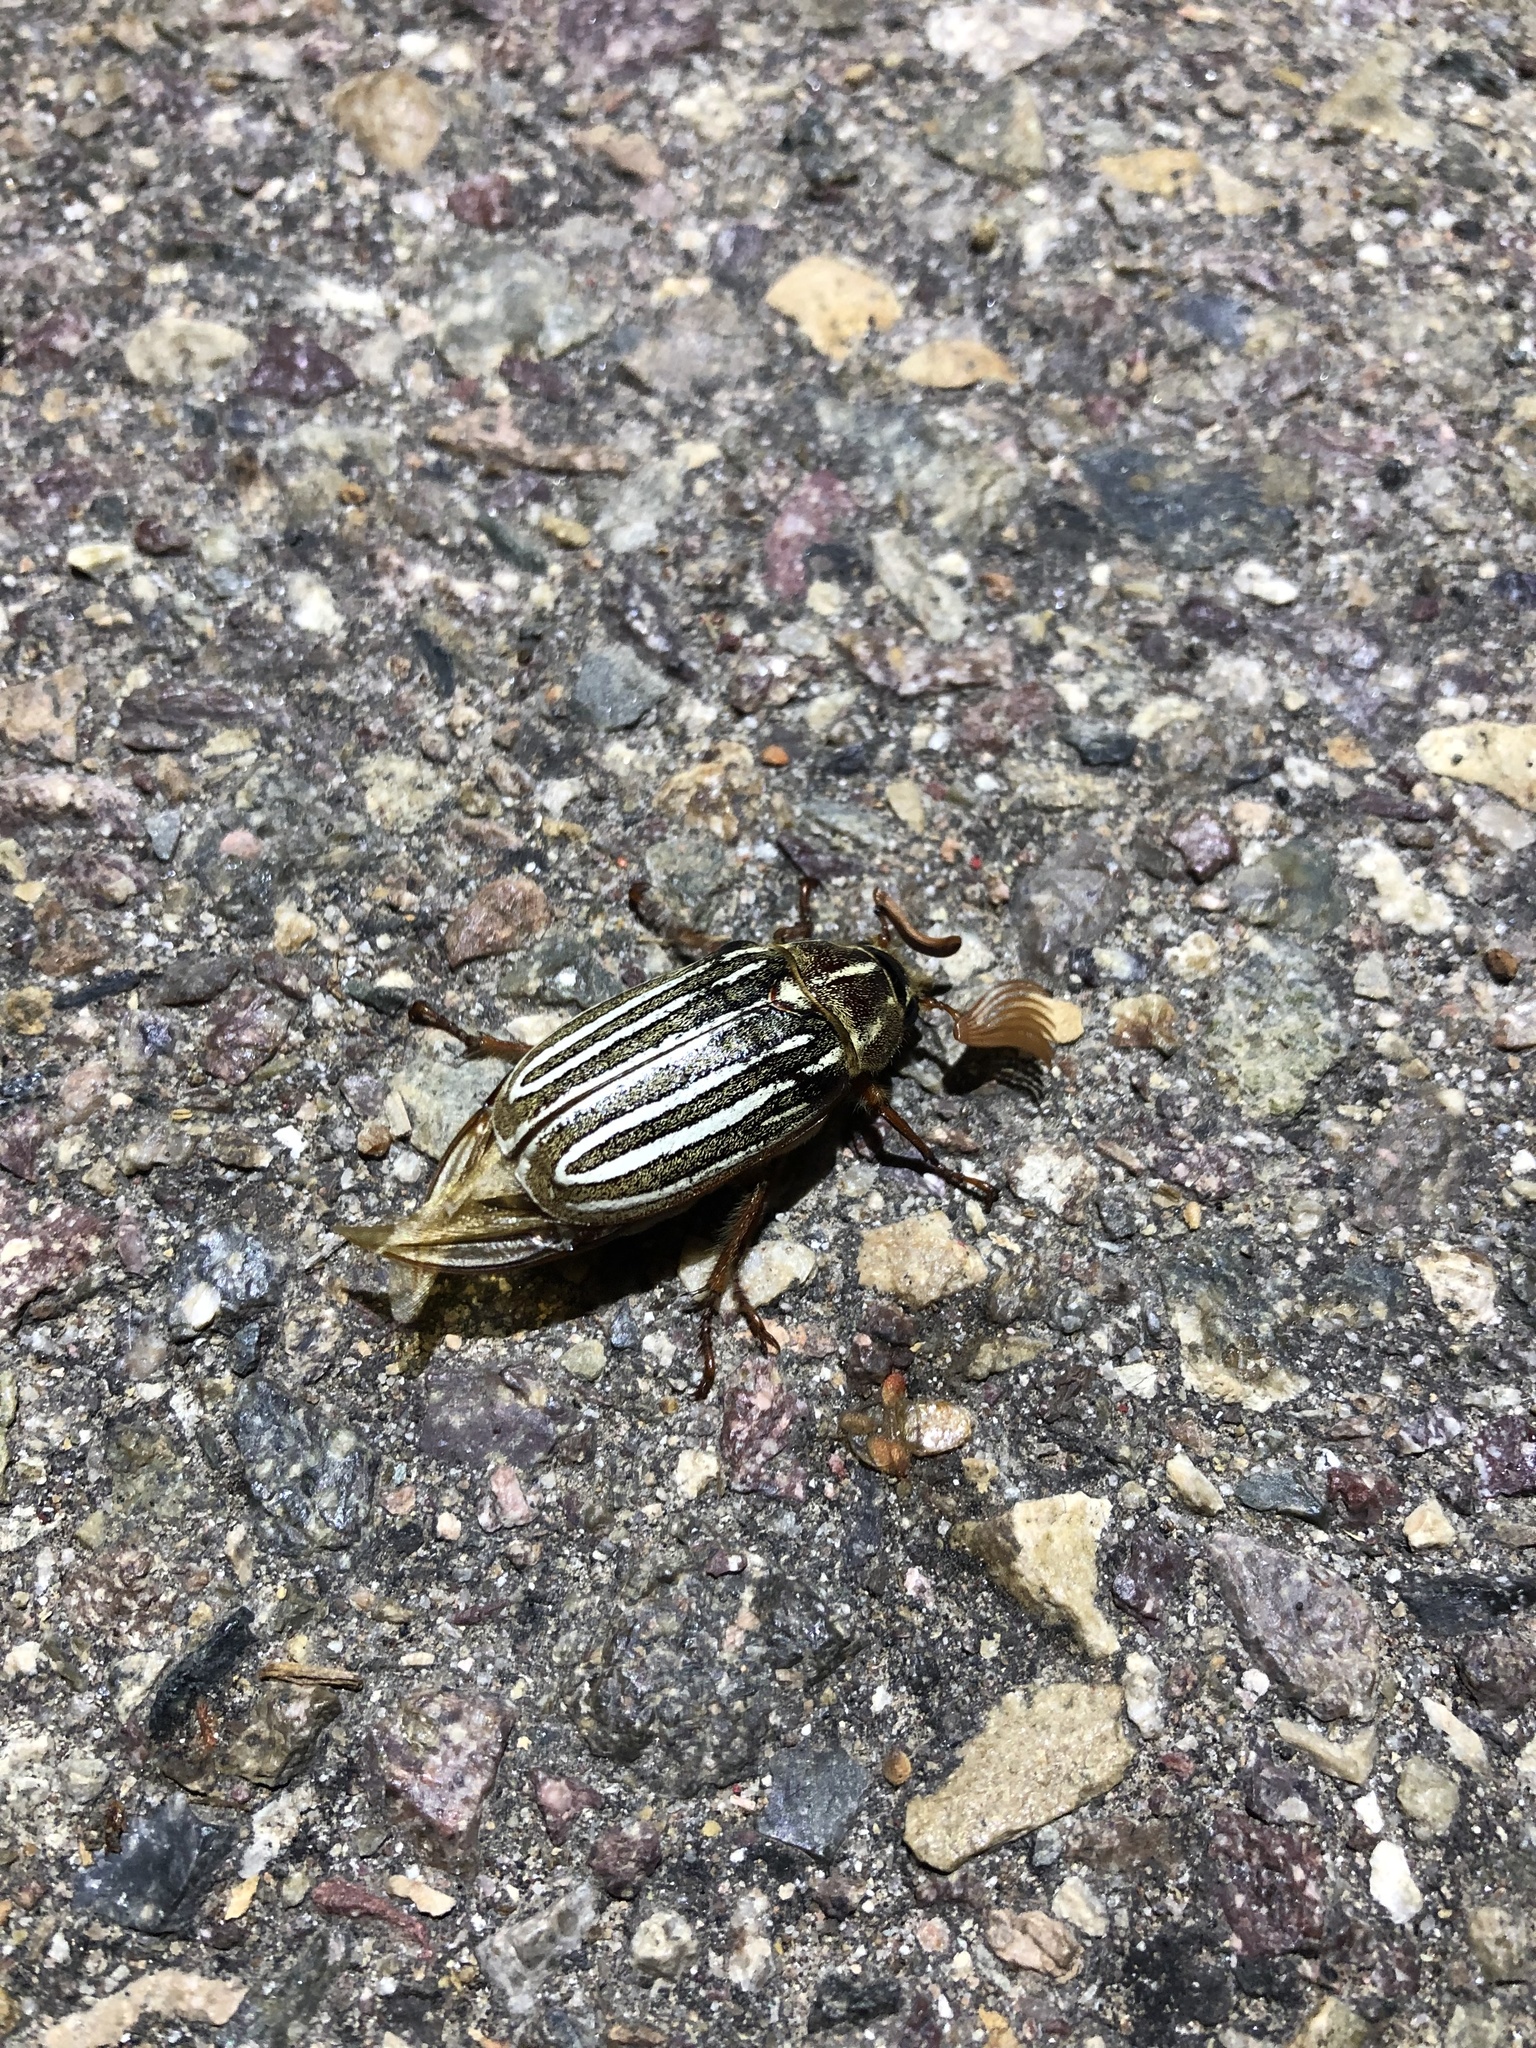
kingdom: Animalia
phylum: Arthropoda
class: Insecta
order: Coleoptera
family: Scarabaeidae
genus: Polyphylla
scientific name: Polyphylla decemlineata
